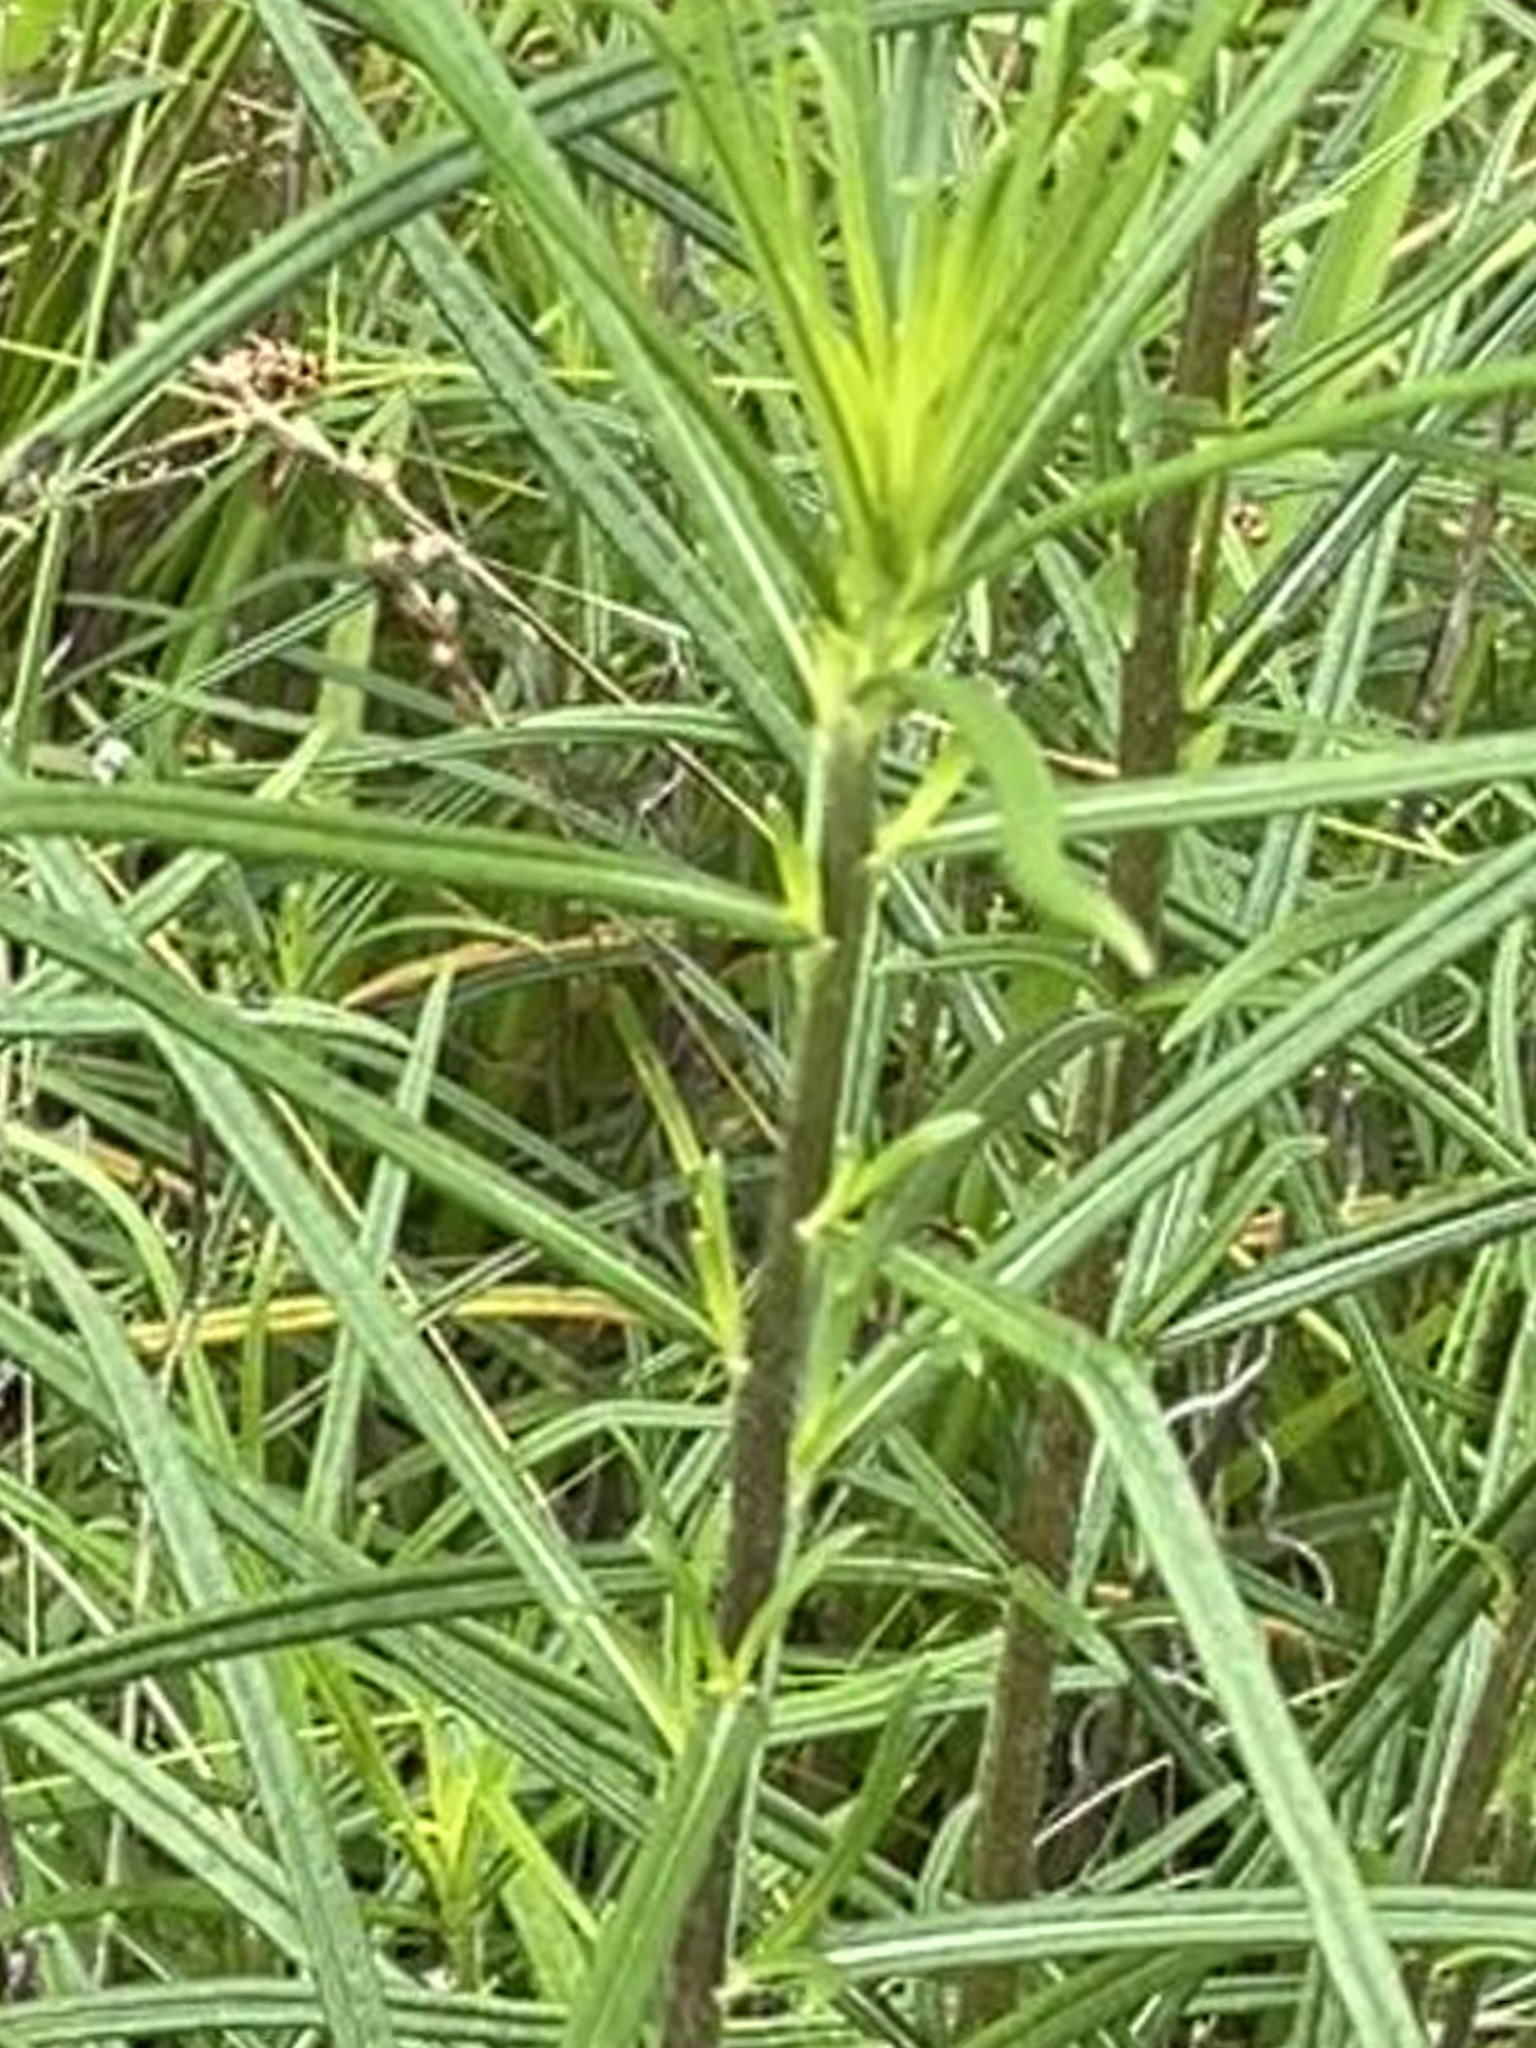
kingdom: Plantae
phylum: Tracheophyta
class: Magnoliopsida
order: Asterales
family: Asteraceae
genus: Helianthus
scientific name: Helianthus angustifolius
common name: Swamp sunflower
